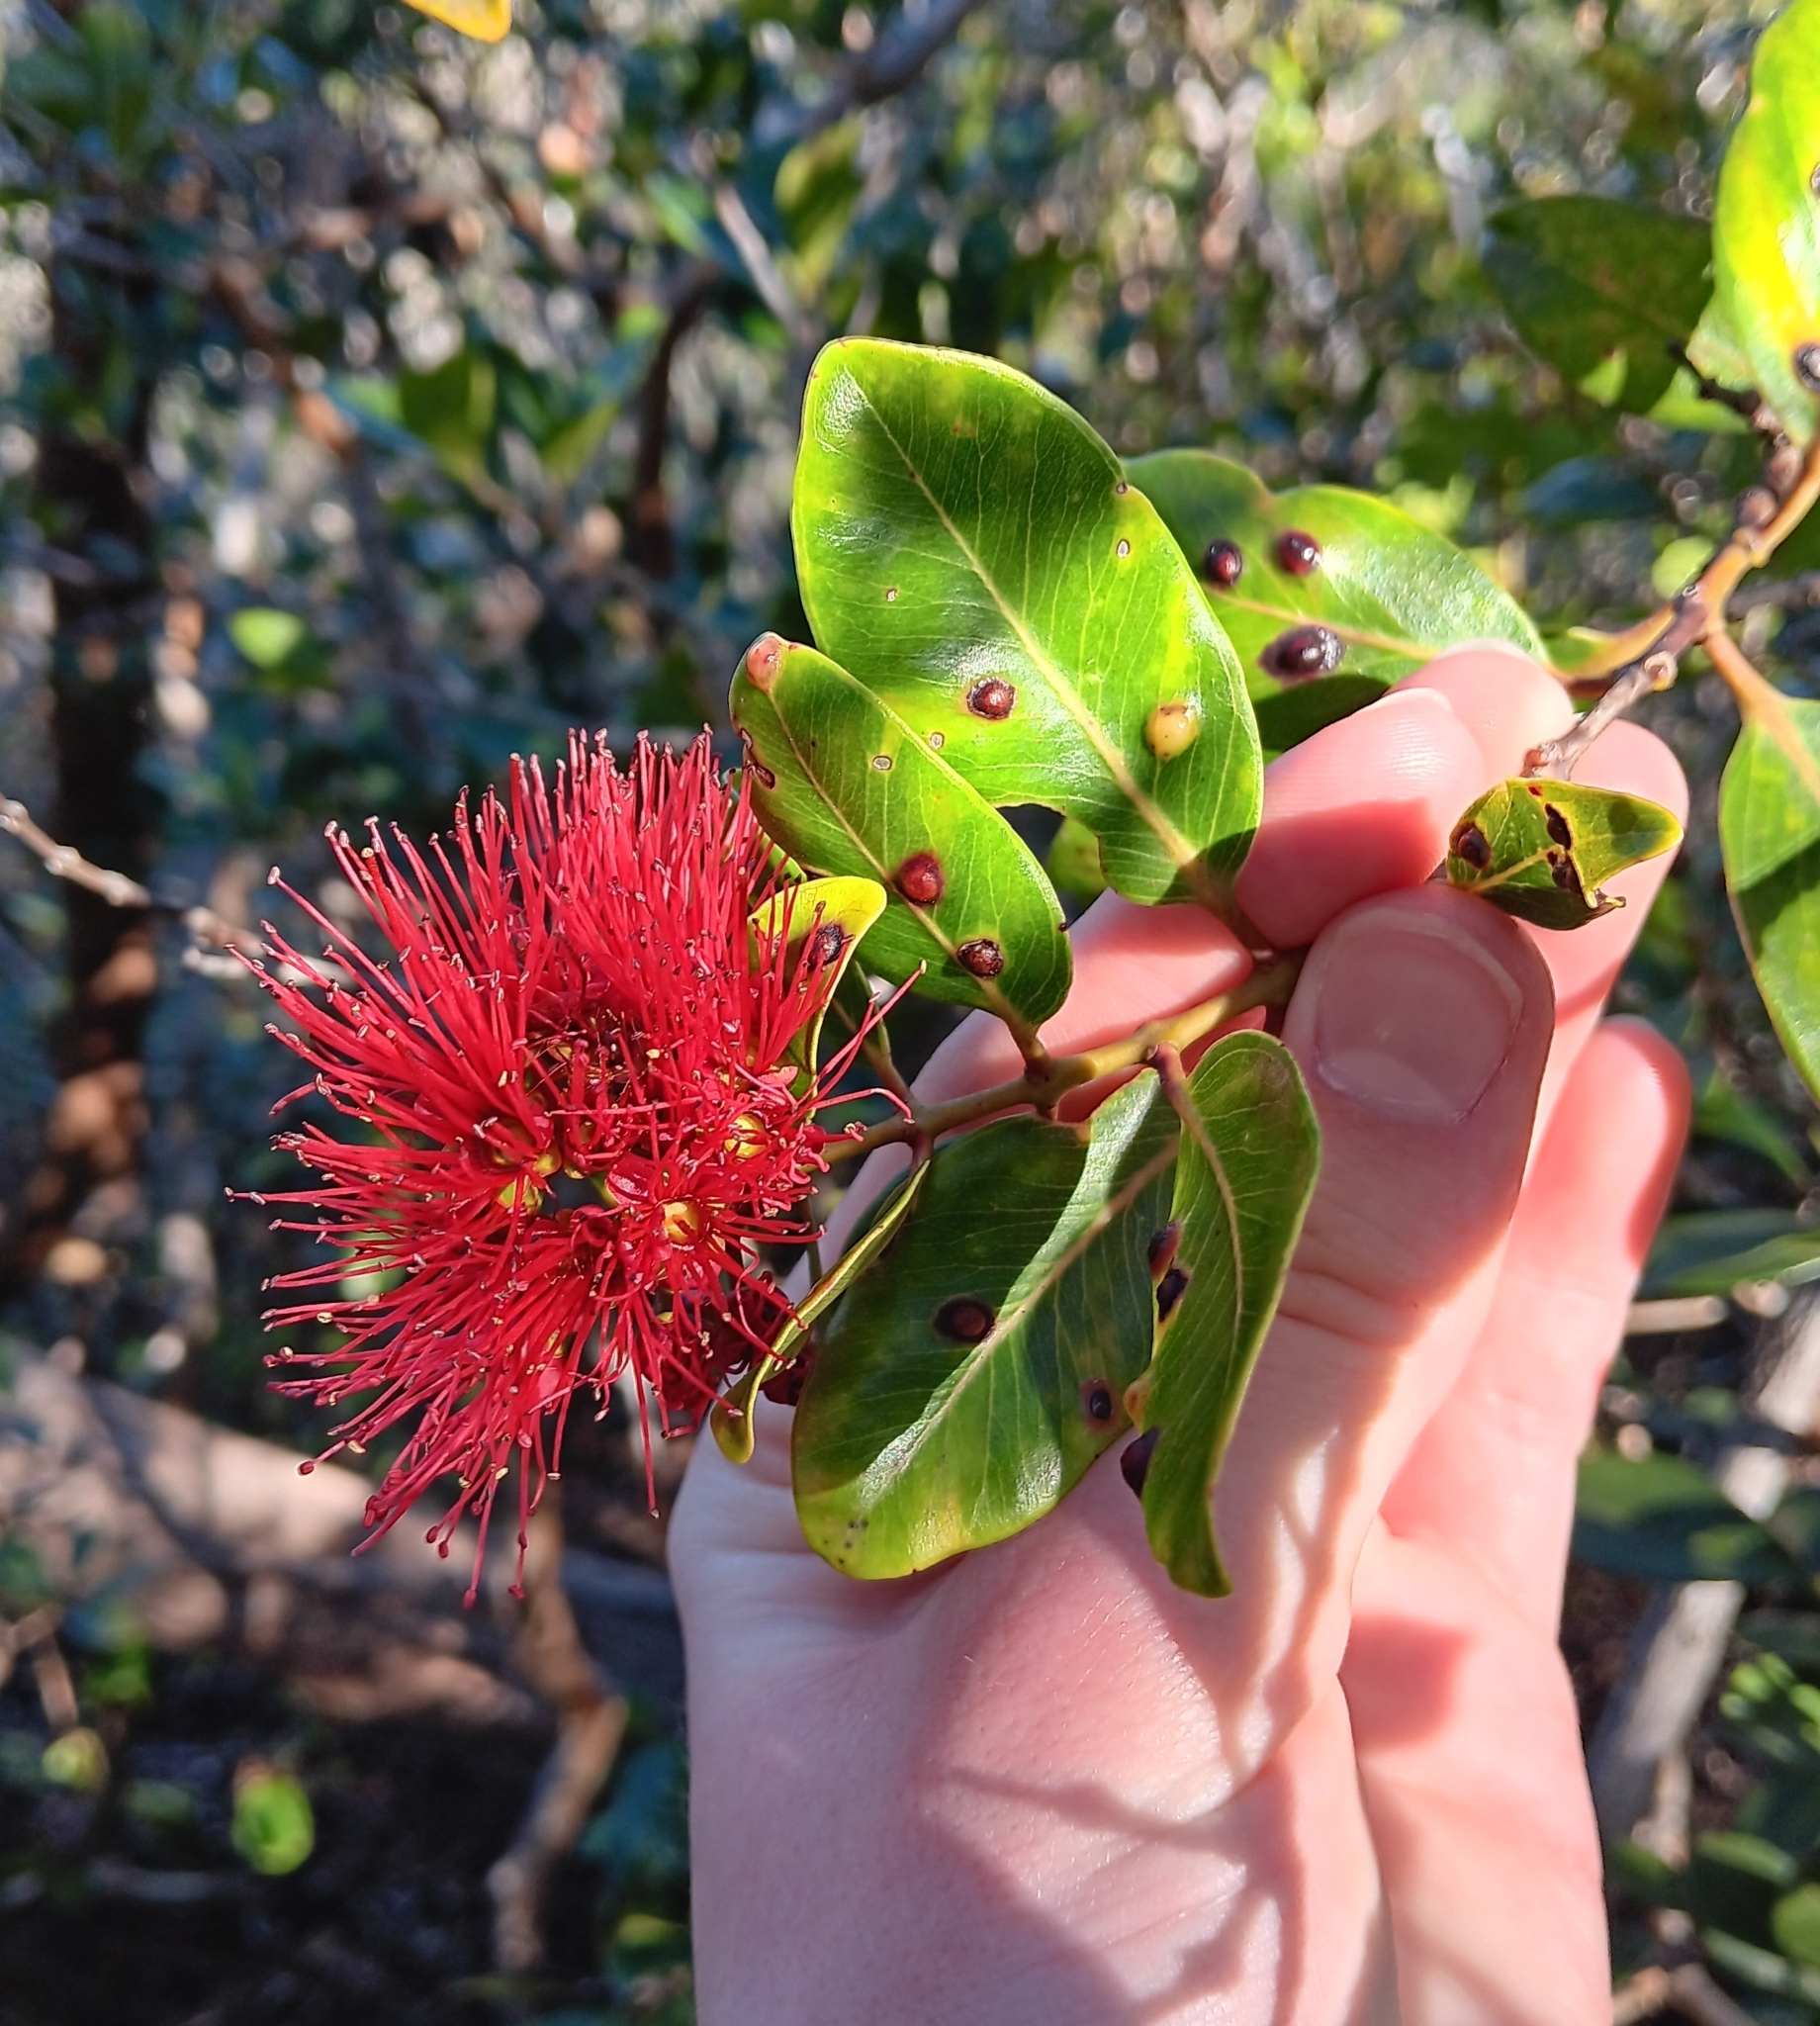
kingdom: Plantae
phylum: Tracheophyta
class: Magnoliopsida
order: Myrtales
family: Myrtaceae
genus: Metrosideros
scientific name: Metrosideros polymorpha
